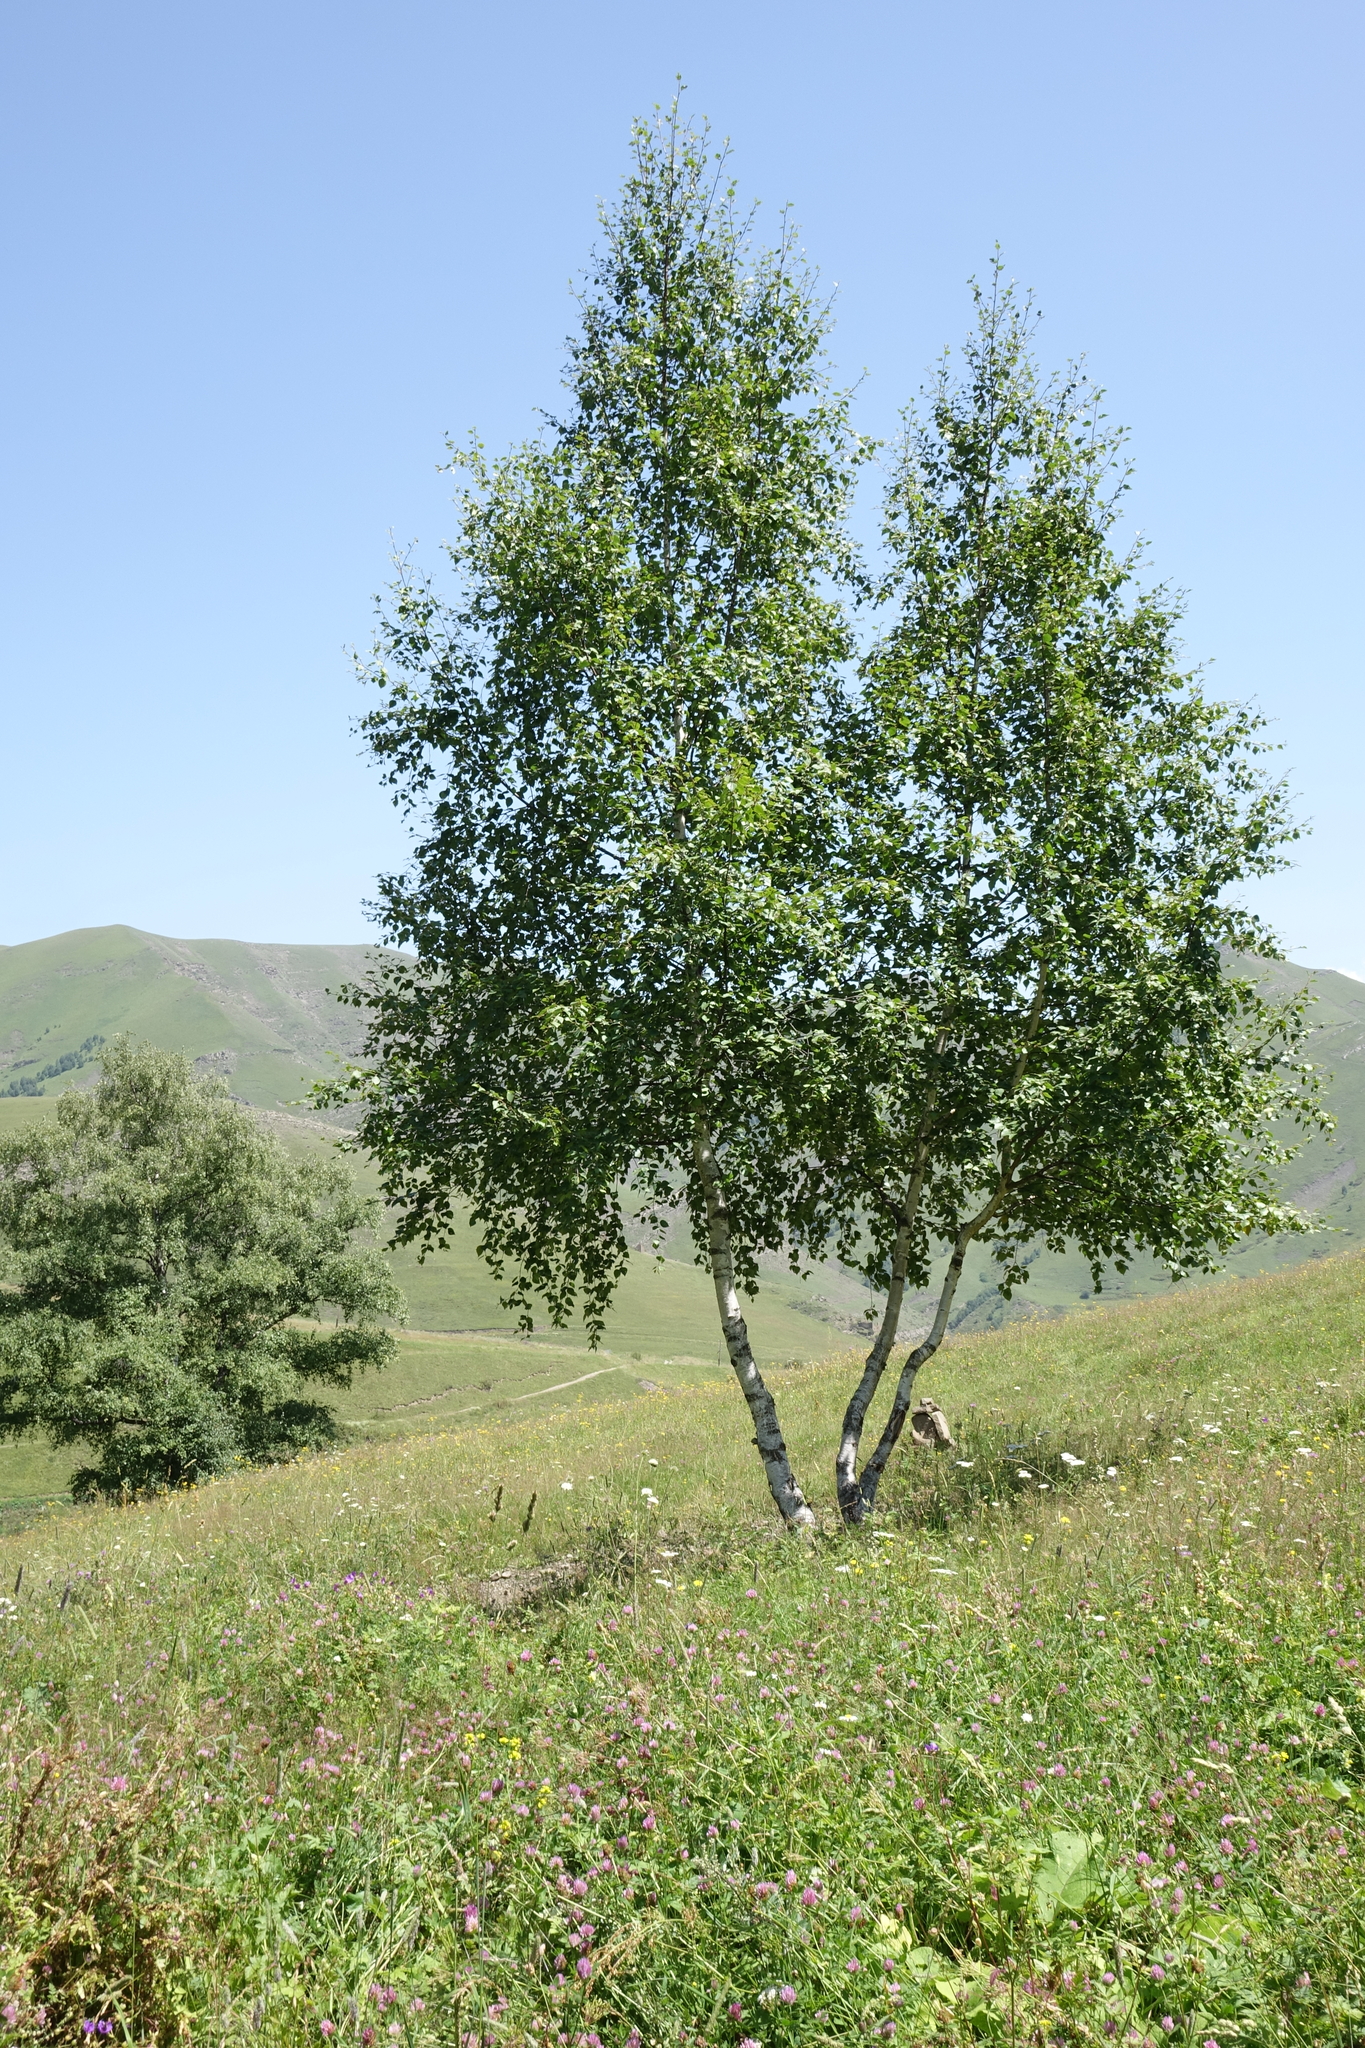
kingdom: Plantae
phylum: Tracheophyta
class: Magnoliopsida
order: Fagales
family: Betulaceae
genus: Betula
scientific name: Betula pendula
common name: Silver birch
